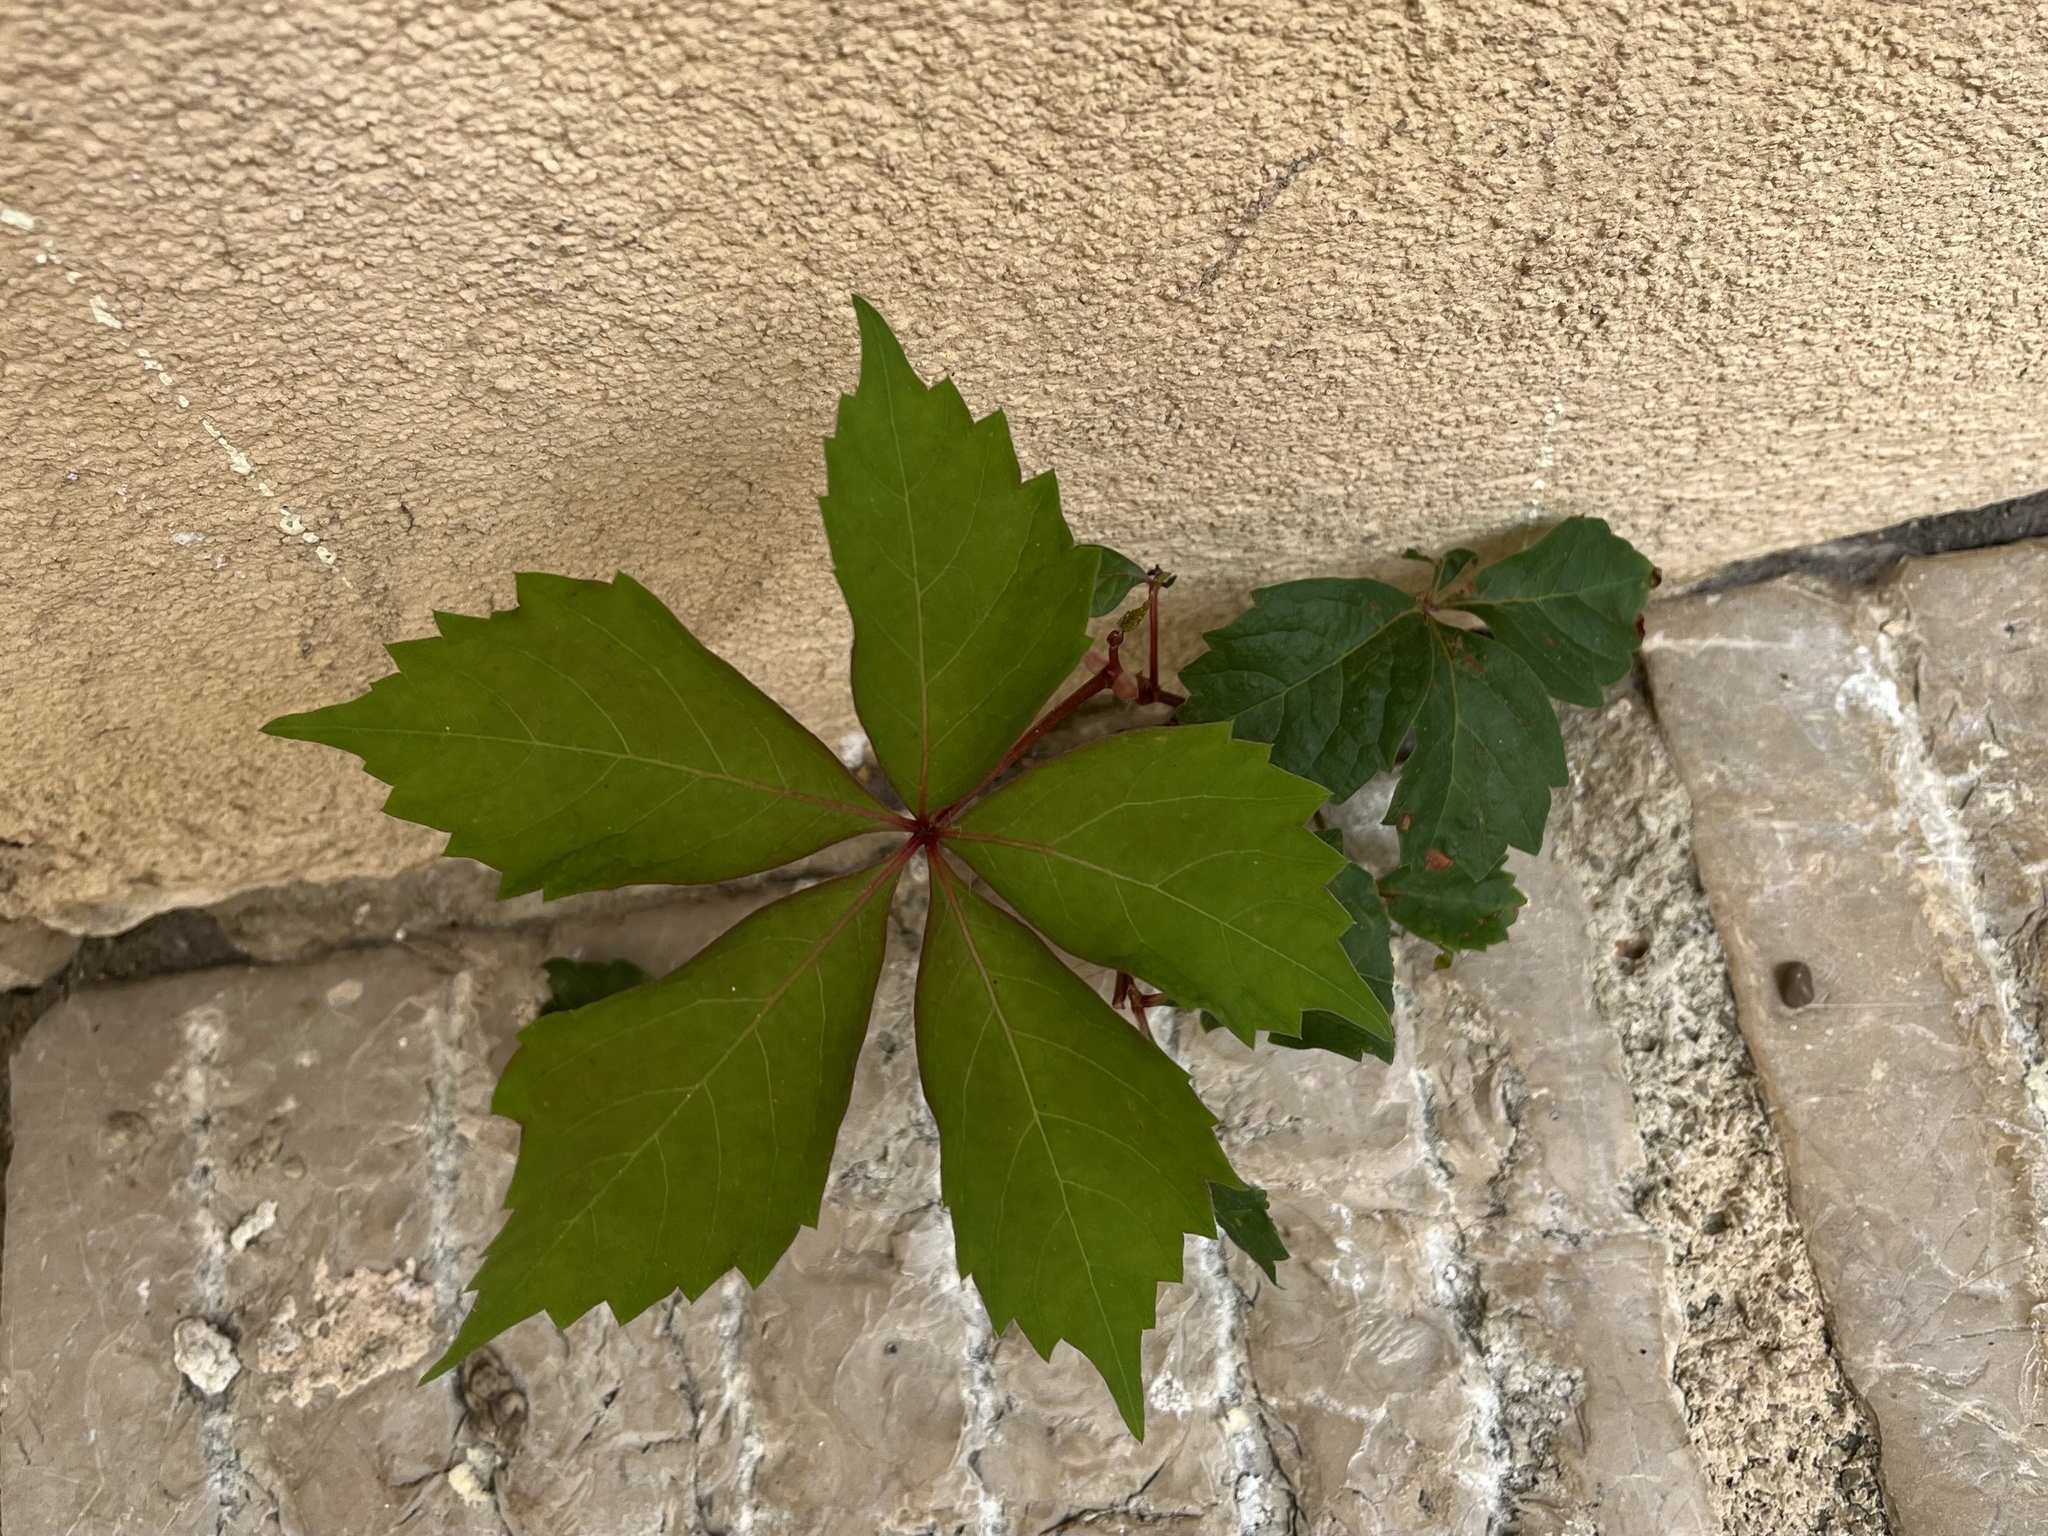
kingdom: Plantae
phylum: Tracheophyta
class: Magnoliopsida
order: Vitales
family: Vitaceae
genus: Parthenocissus
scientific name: Parthenocissus quinquefolia
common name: Virginia-creeper
